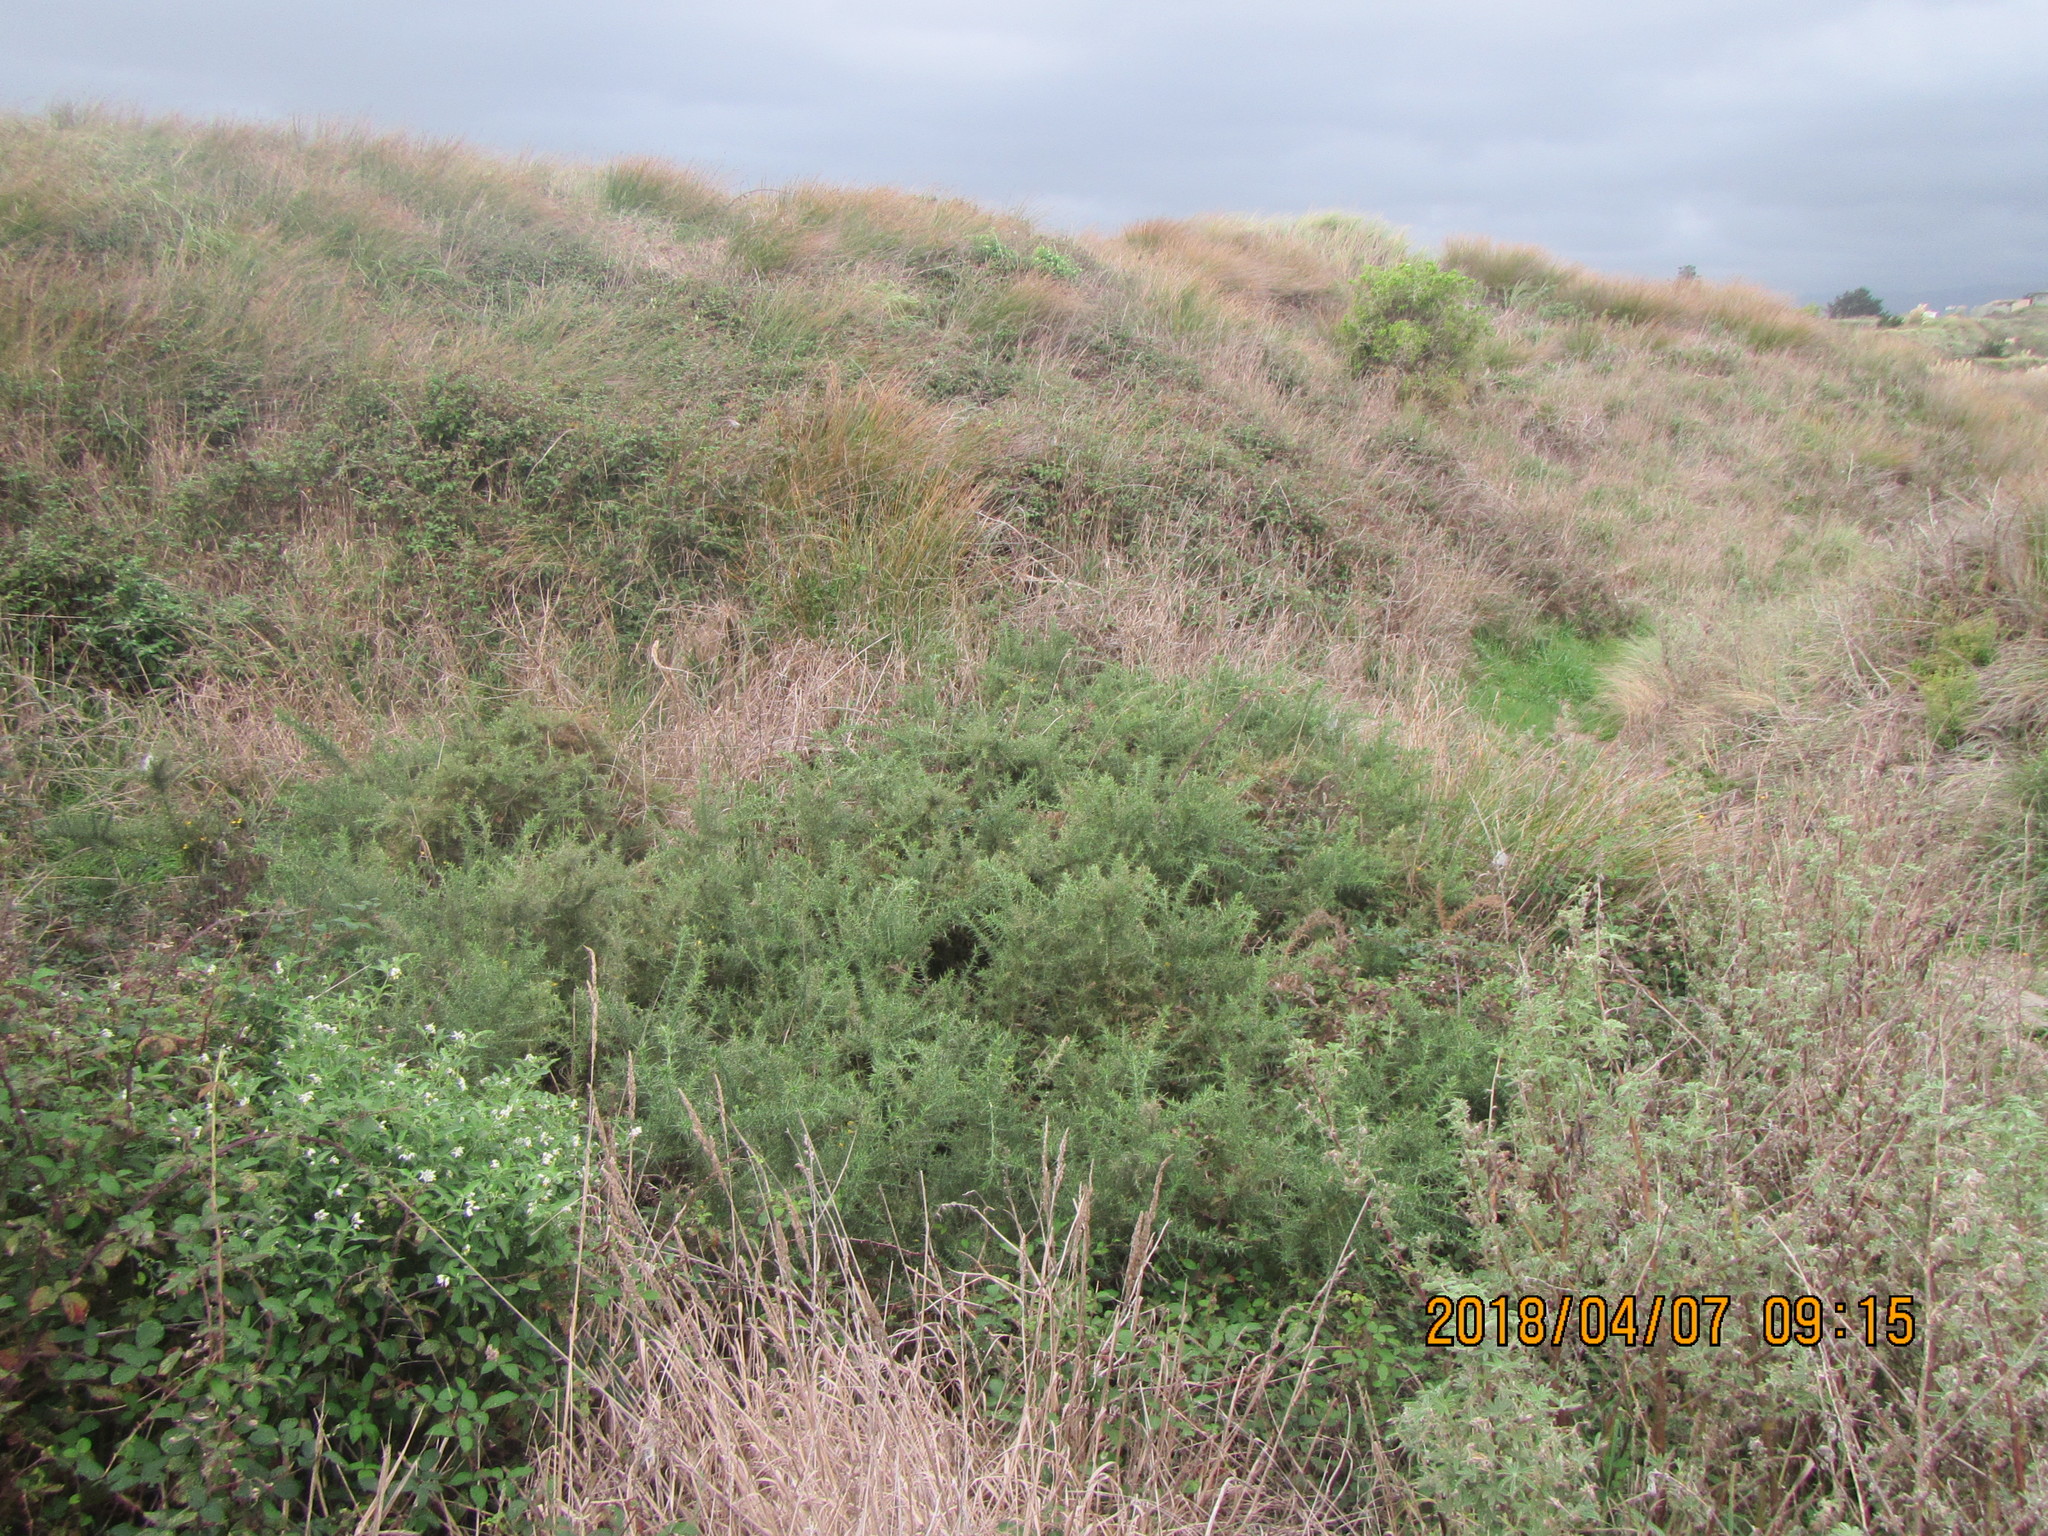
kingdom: Plantae
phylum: Tracheophyta
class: Magnoliopsida
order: Fabales
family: Fabaceae
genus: Ulex
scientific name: Ulex europaeus
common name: Common gorse
